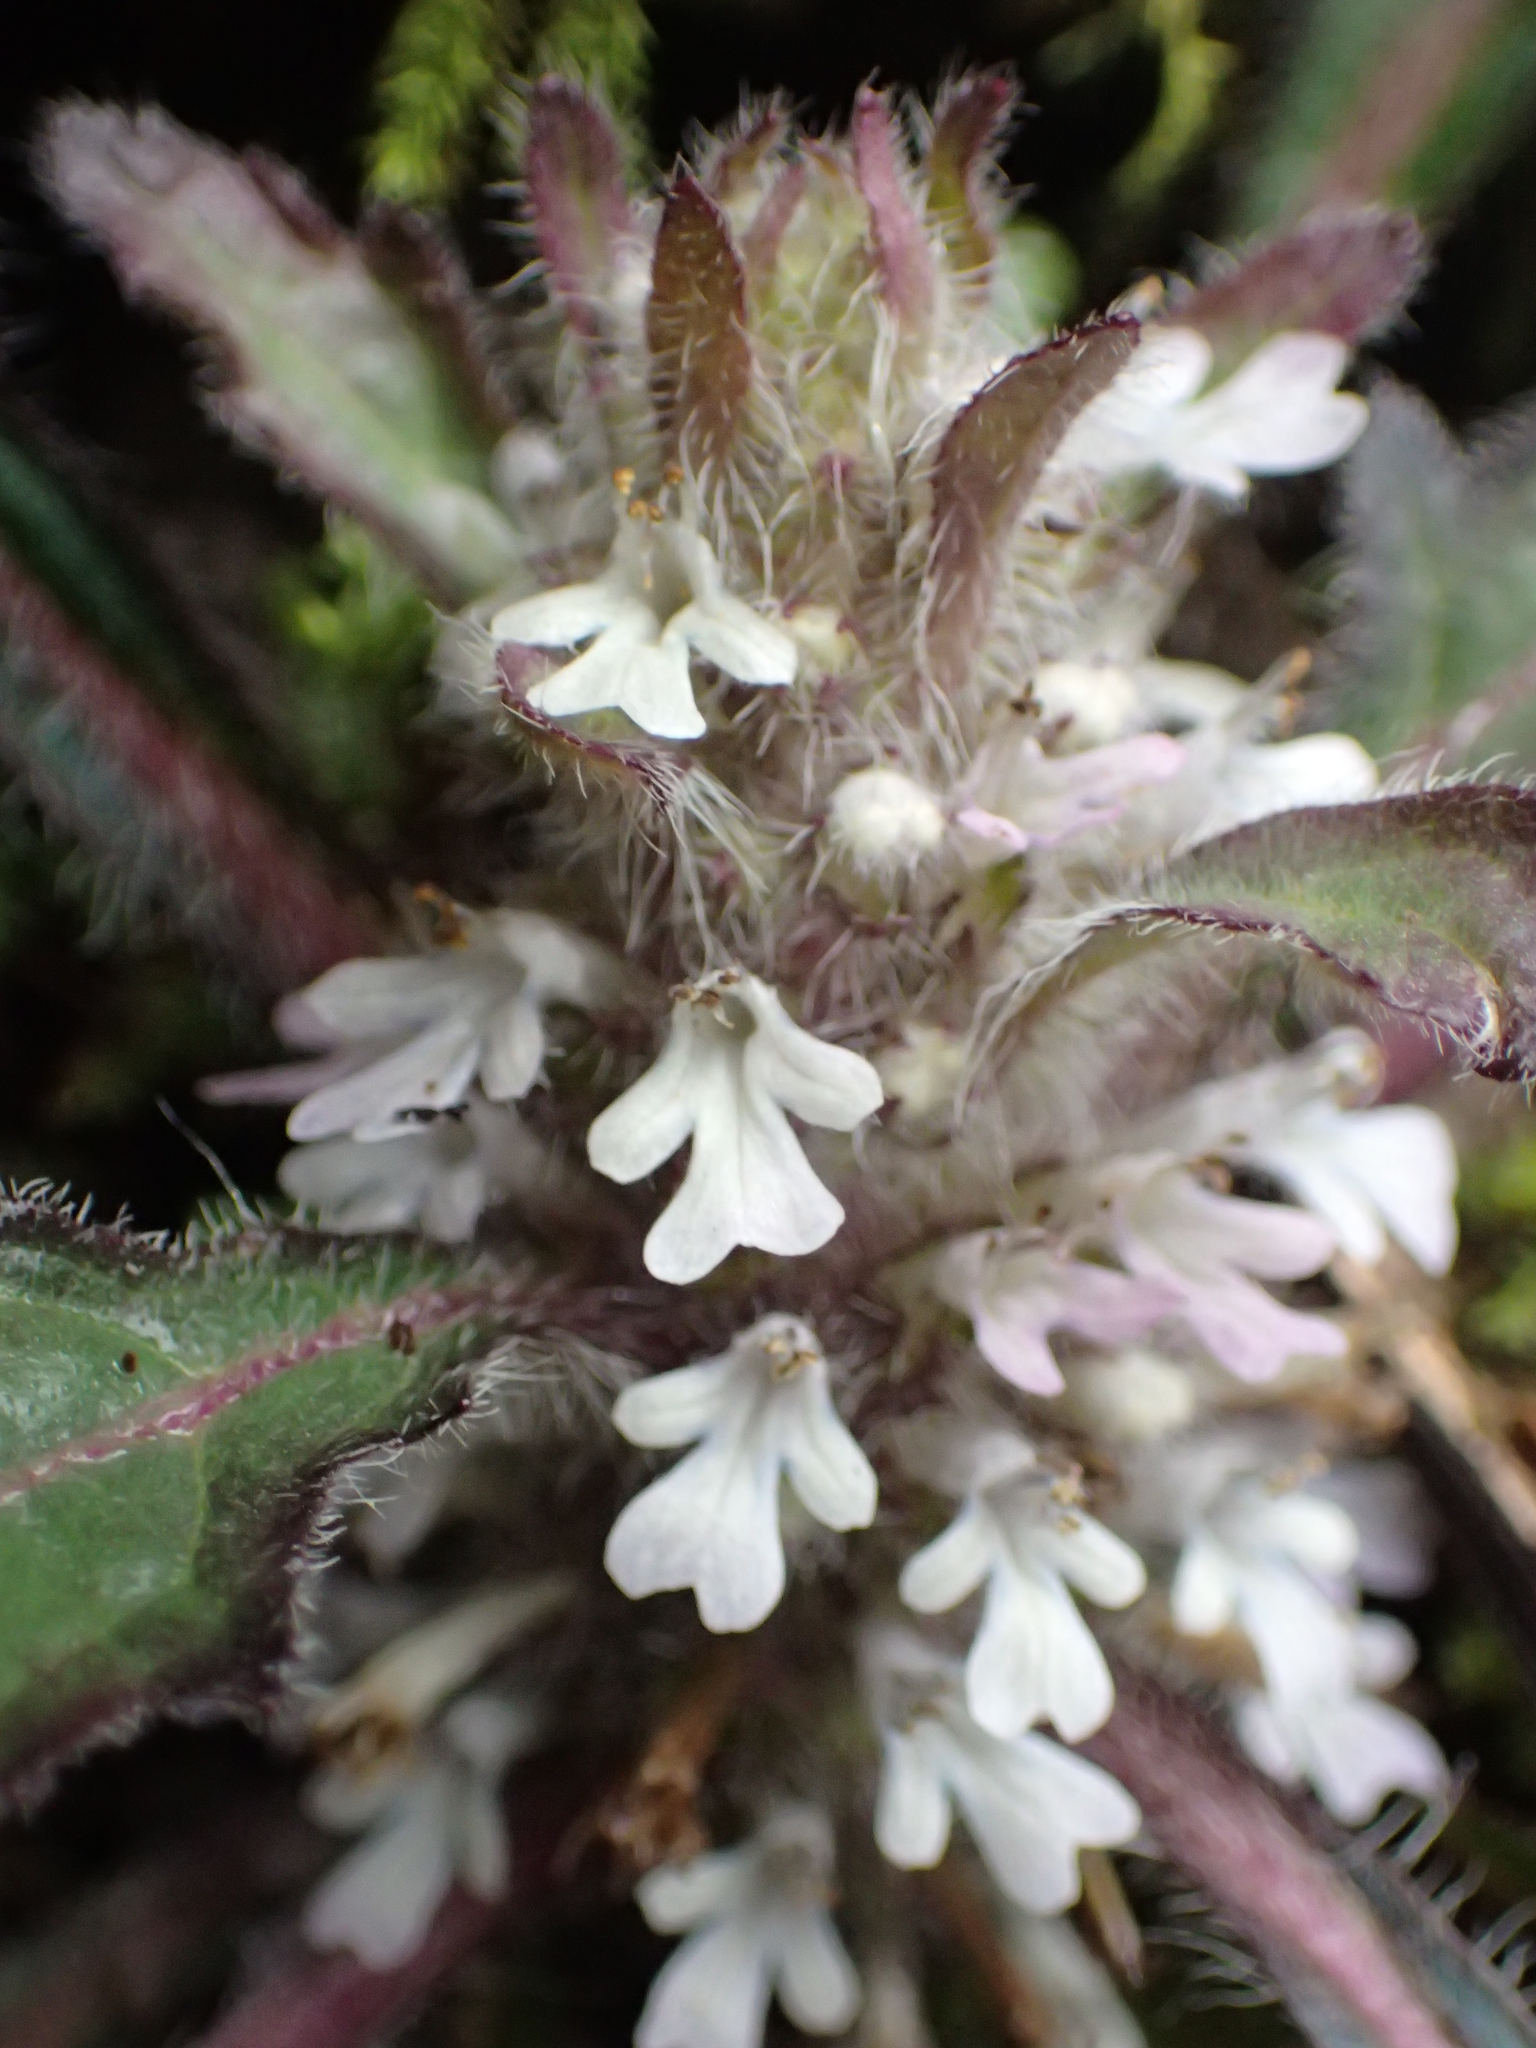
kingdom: Plantae
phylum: Tracheophyta
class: Magnoliopsida
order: Lamiales
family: Lamiaceae
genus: Ajuga
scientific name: Ajuga taiwanensis
